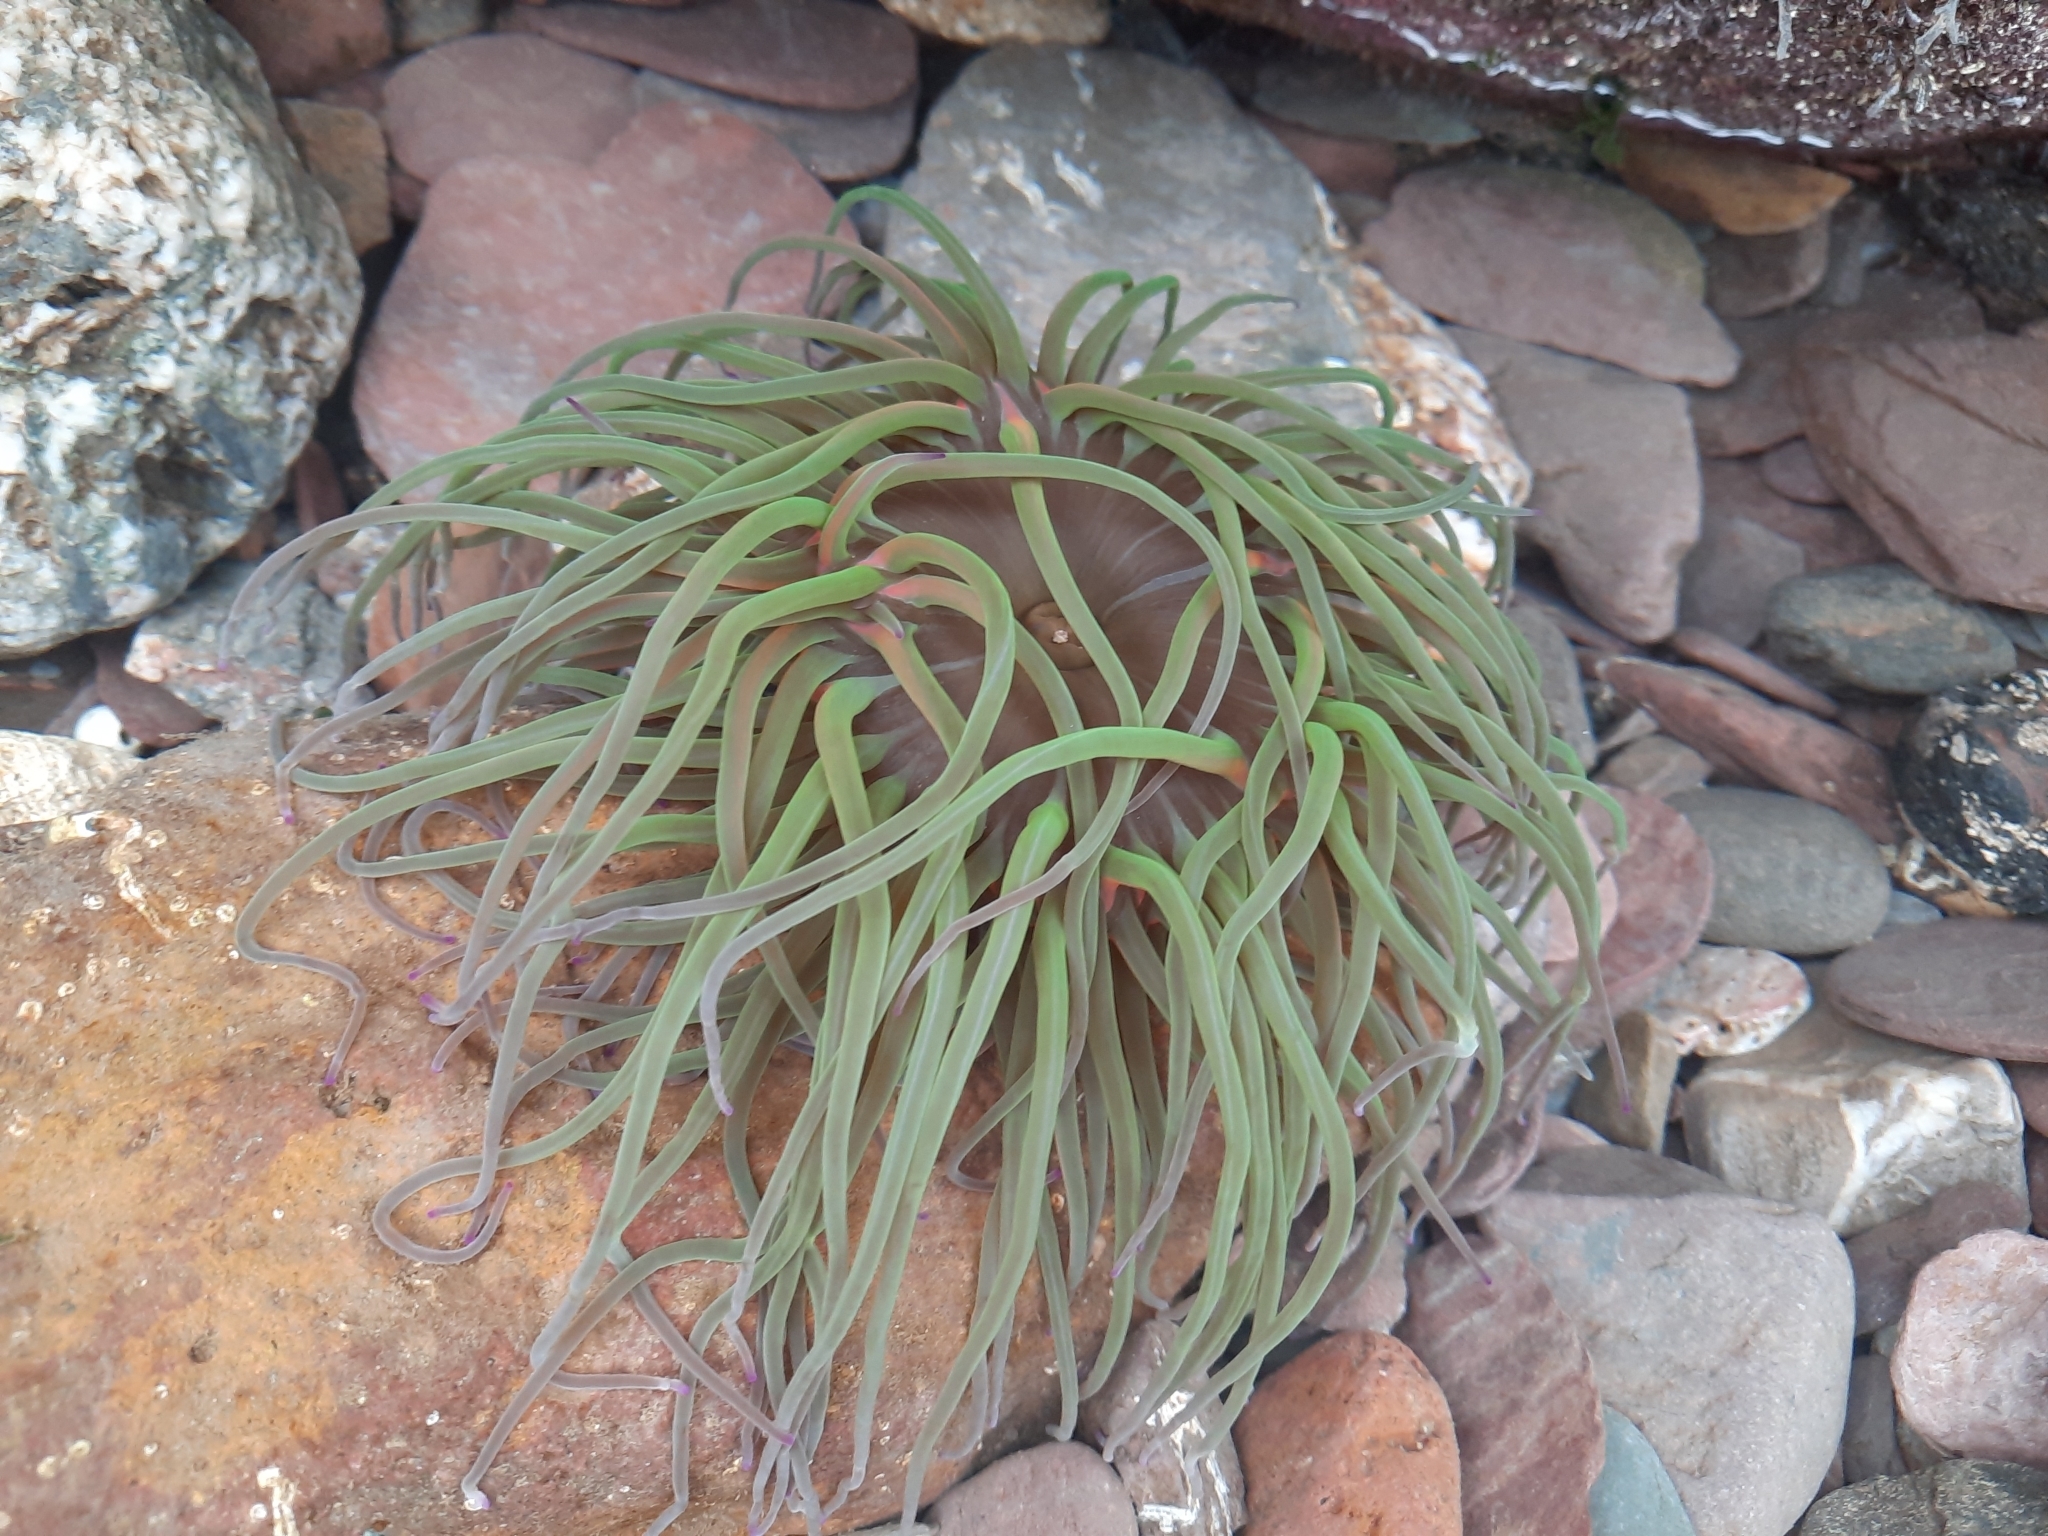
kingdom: Animalia
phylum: Cnidaria
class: Anthozoa
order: Actiniaria
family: Actiniidae
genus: Anemonia
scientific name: Anemonia viridis
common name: Snakelocks anemone
